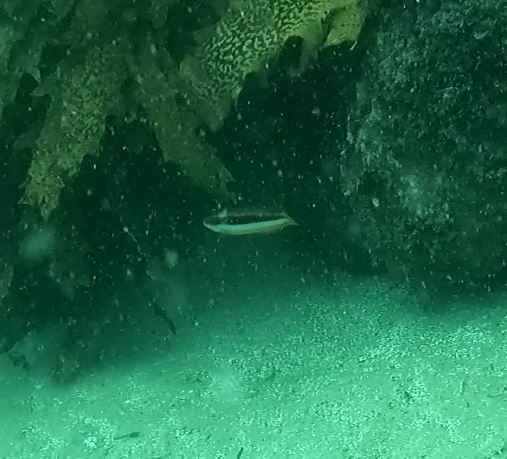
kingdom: Animalia
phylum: Chordata
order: Perciformes
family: Labridae
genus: Ophthalmolepis
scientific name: Ophthalmolepis lineolata
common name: Maori wrasse
